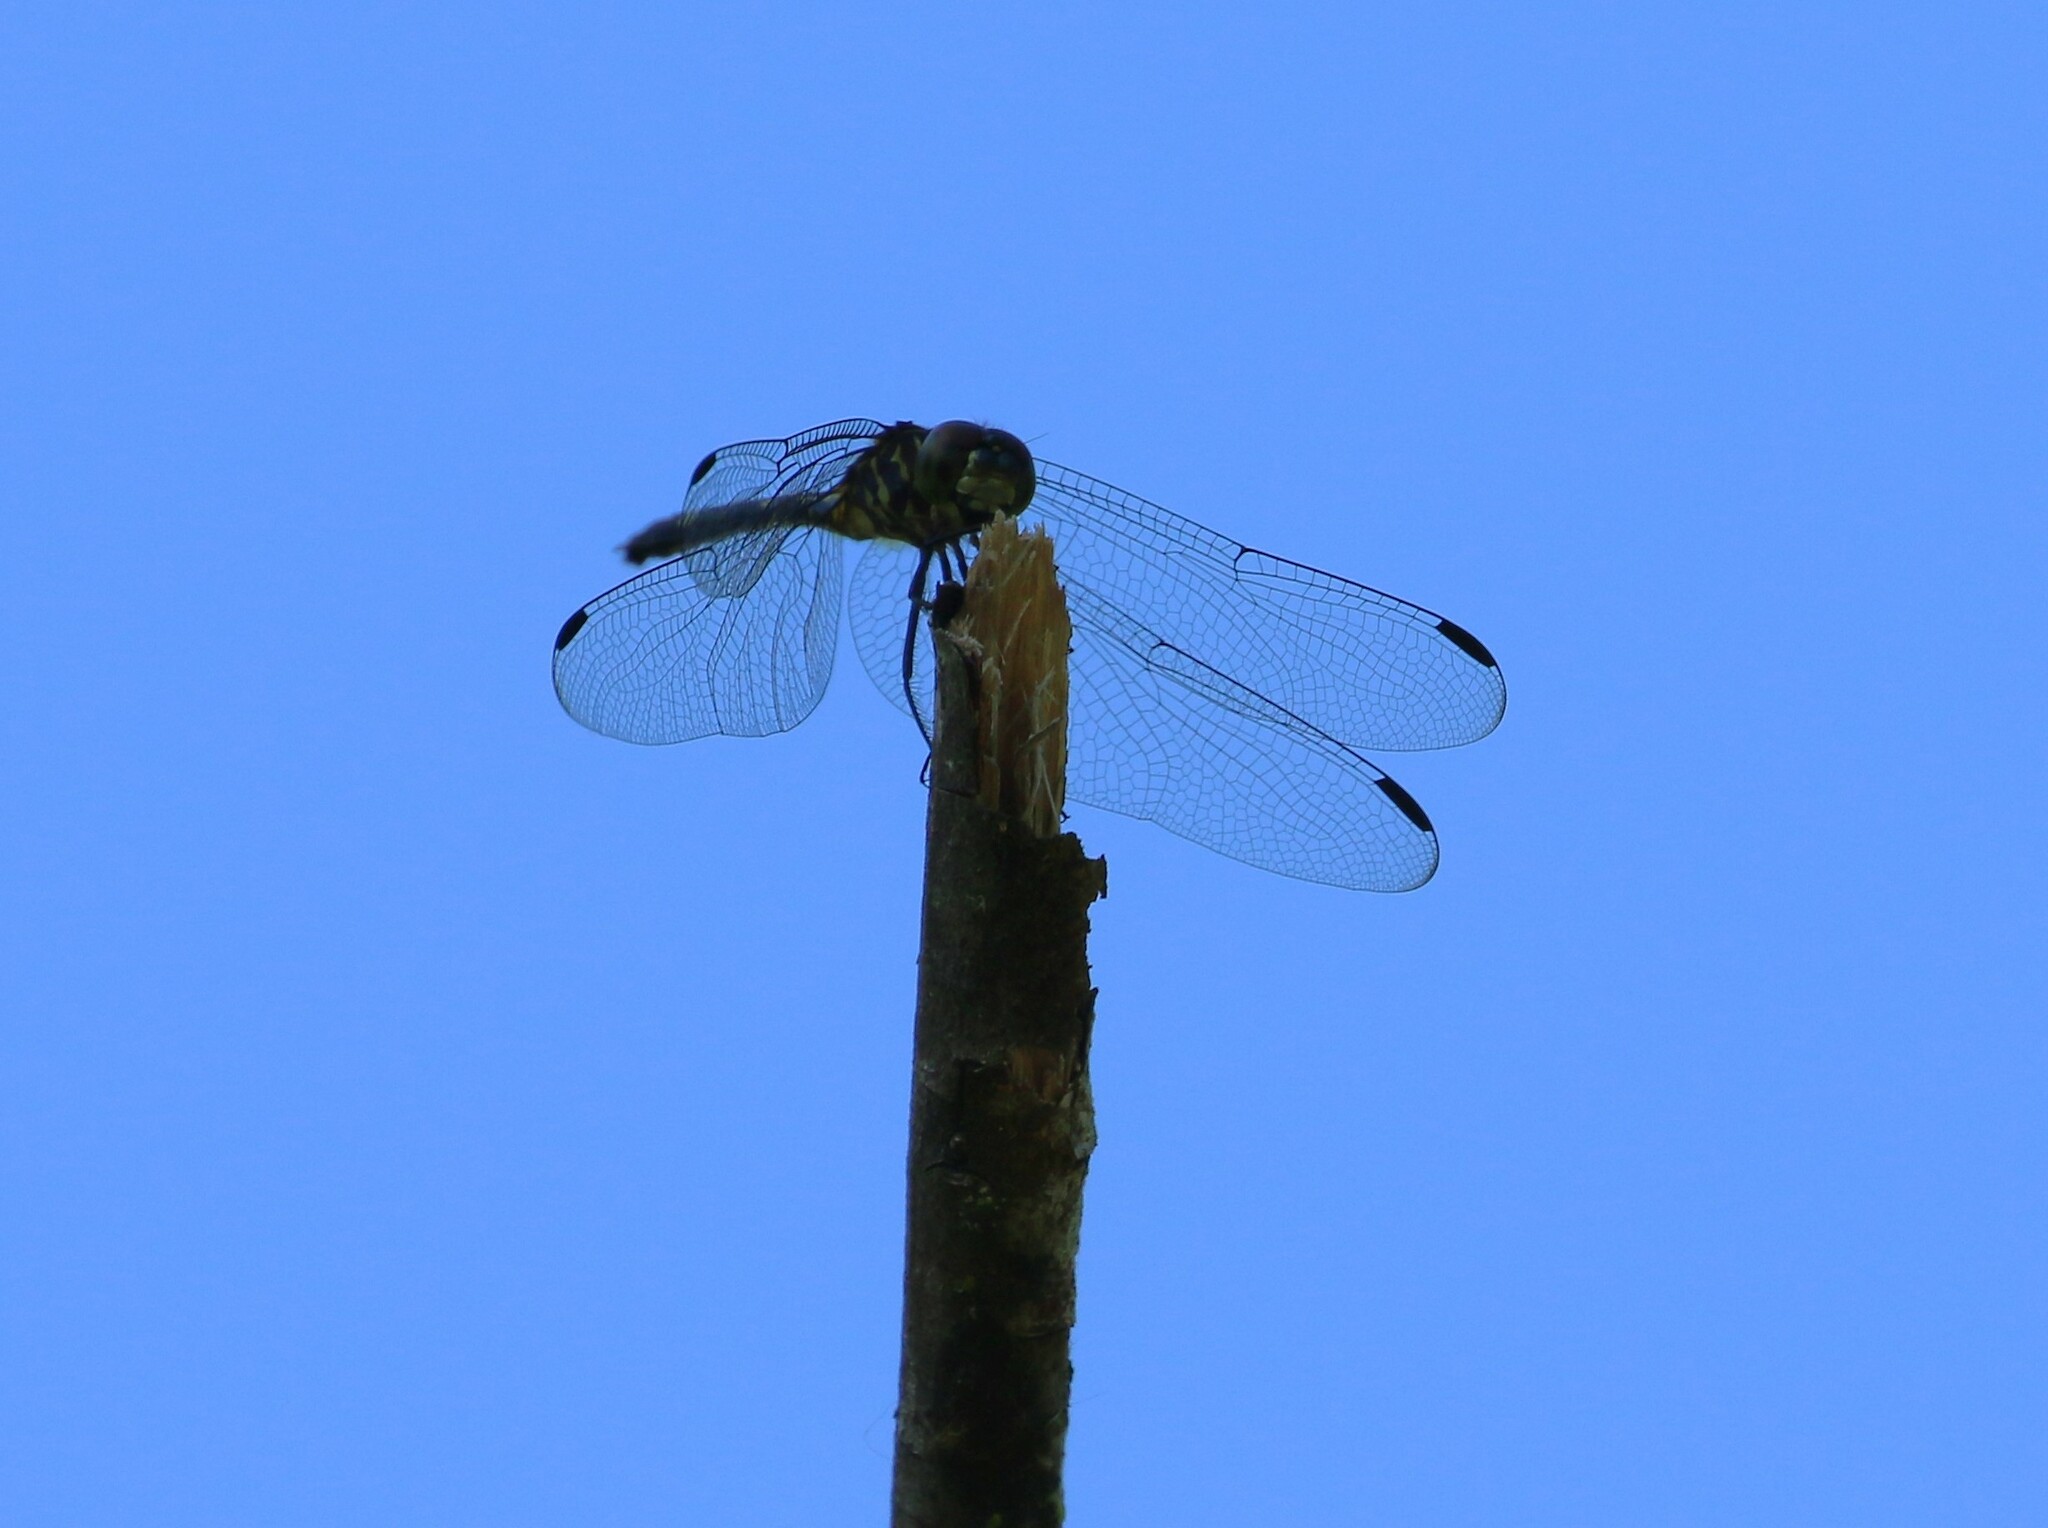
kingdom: Animalia
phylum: Arthropoda
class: Insecta
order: Odonata
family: Libellulidae
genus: Dythemis
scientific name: Dythemis nigra
